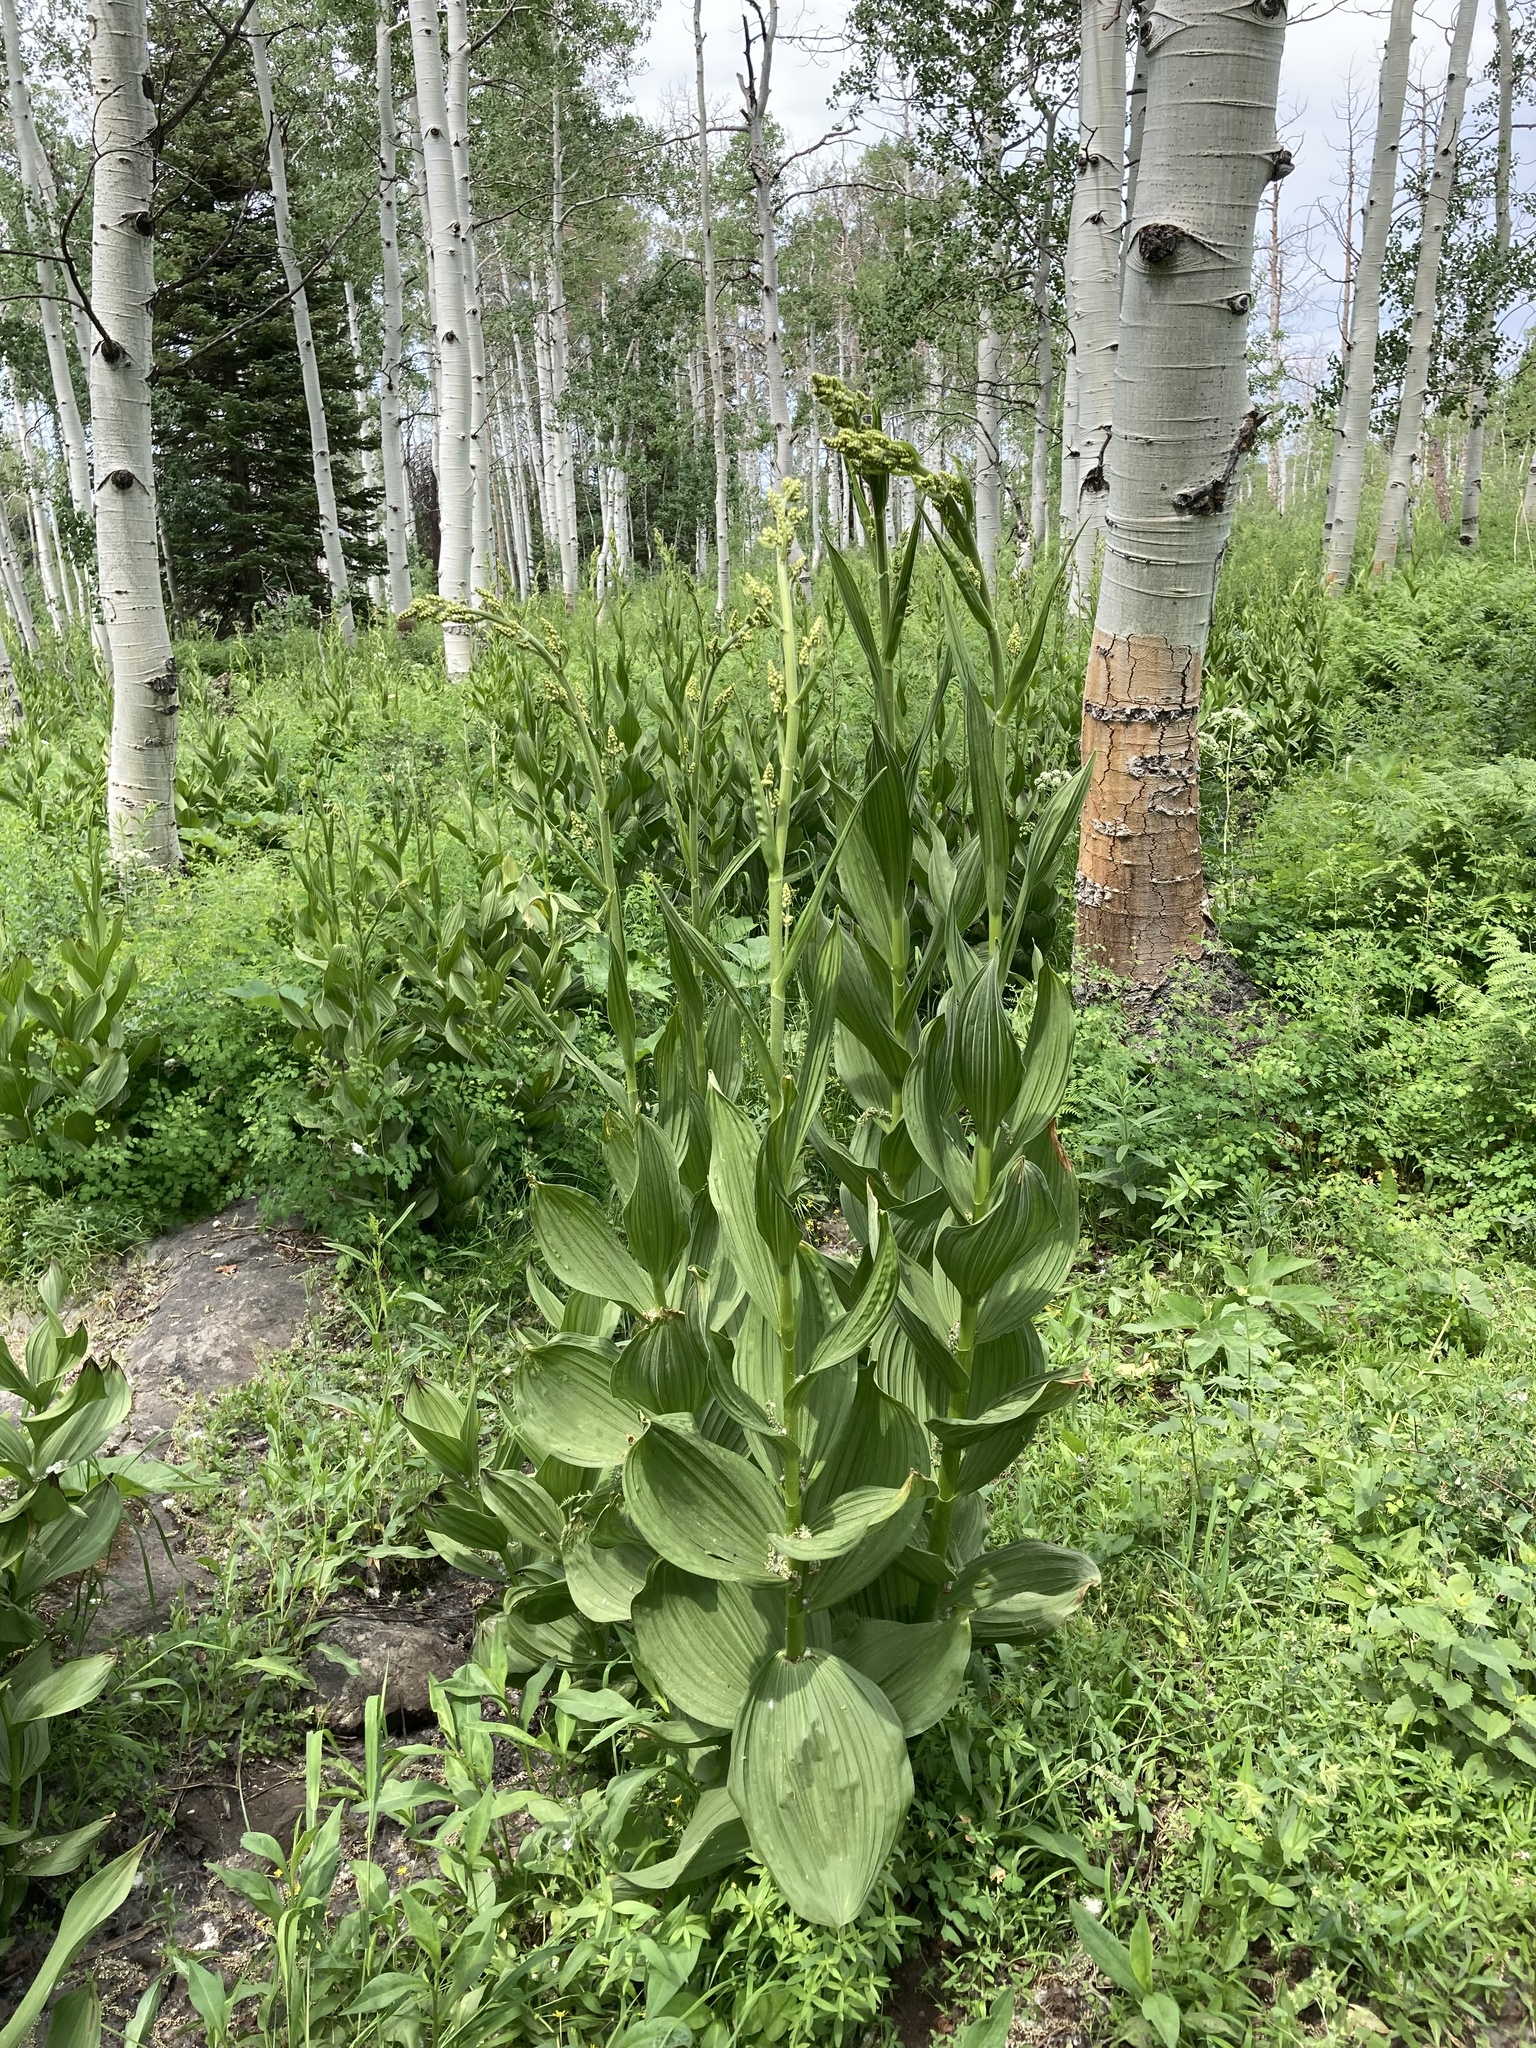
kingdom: Plantae
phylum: Tracheophyta
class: Liliopsida
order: Liliales
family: Melanthiaceae
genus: Veratrum
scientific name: Veratrum californicum
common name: California veratrum
